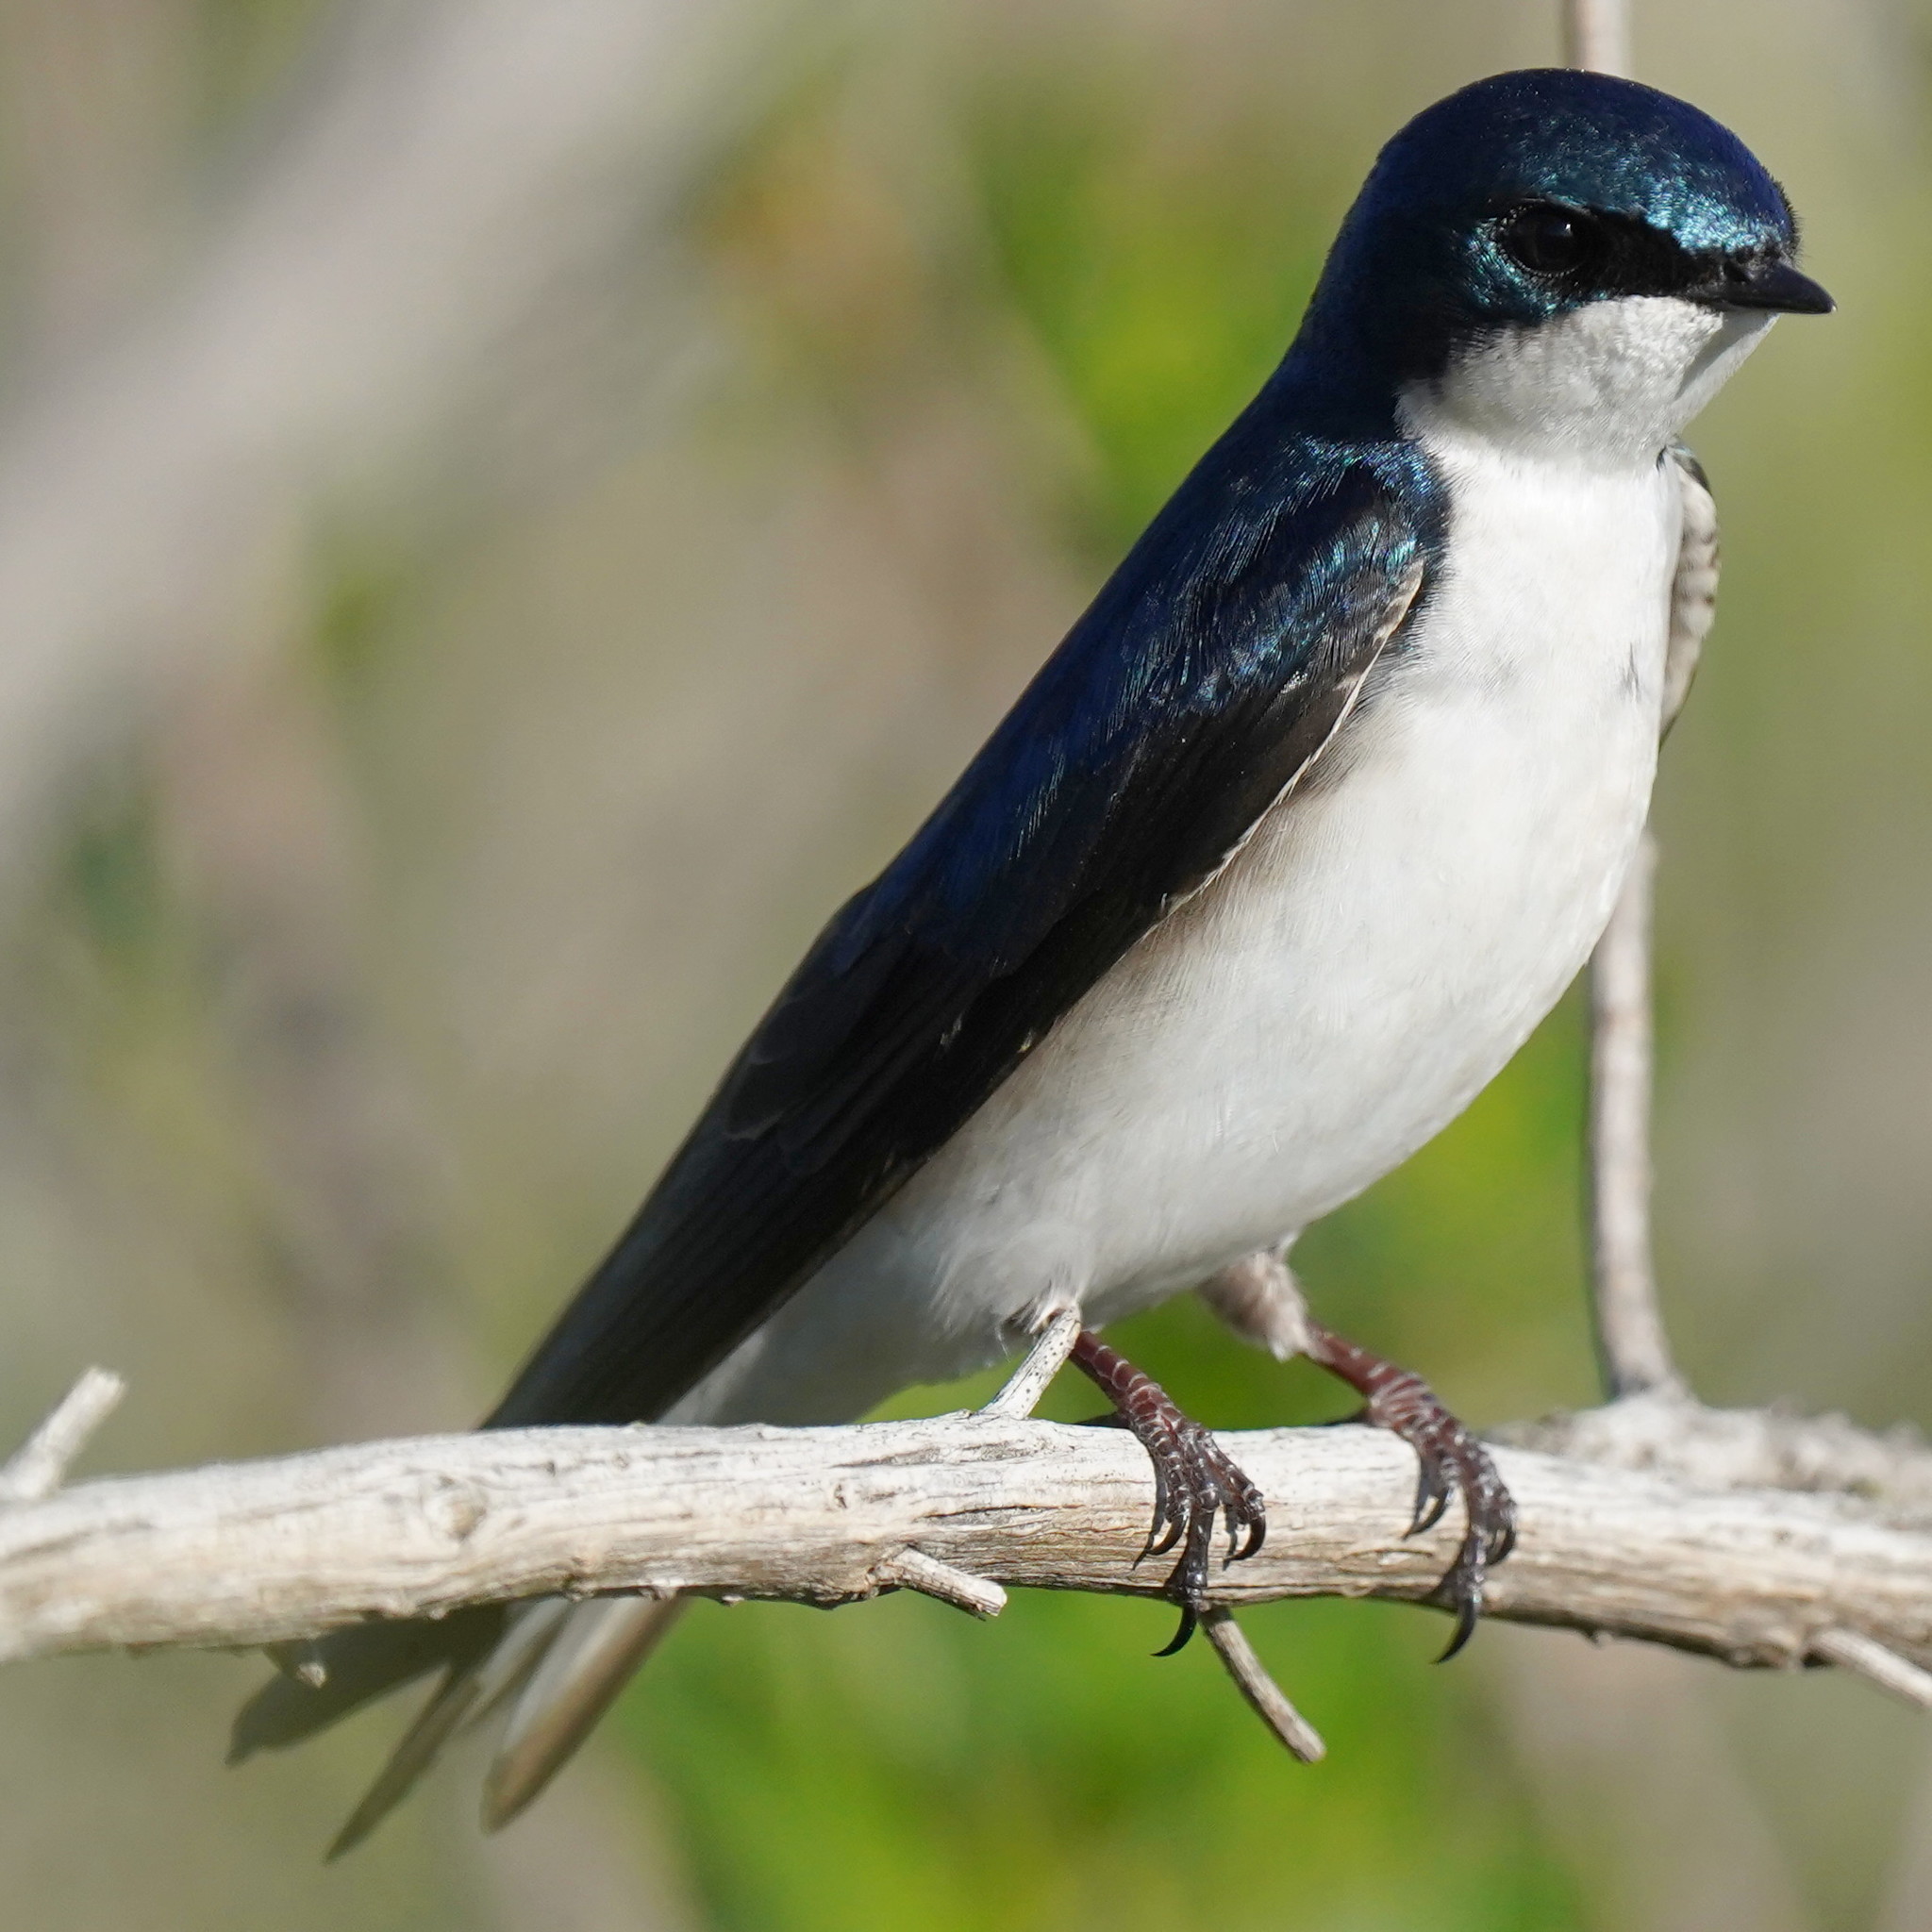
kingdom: Animalia
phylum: Chordata
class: Aves
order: Passeriformes
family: Hirundinidae
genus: Tachycineta
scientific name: Tachycineta bicolor
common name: Tree swallow
